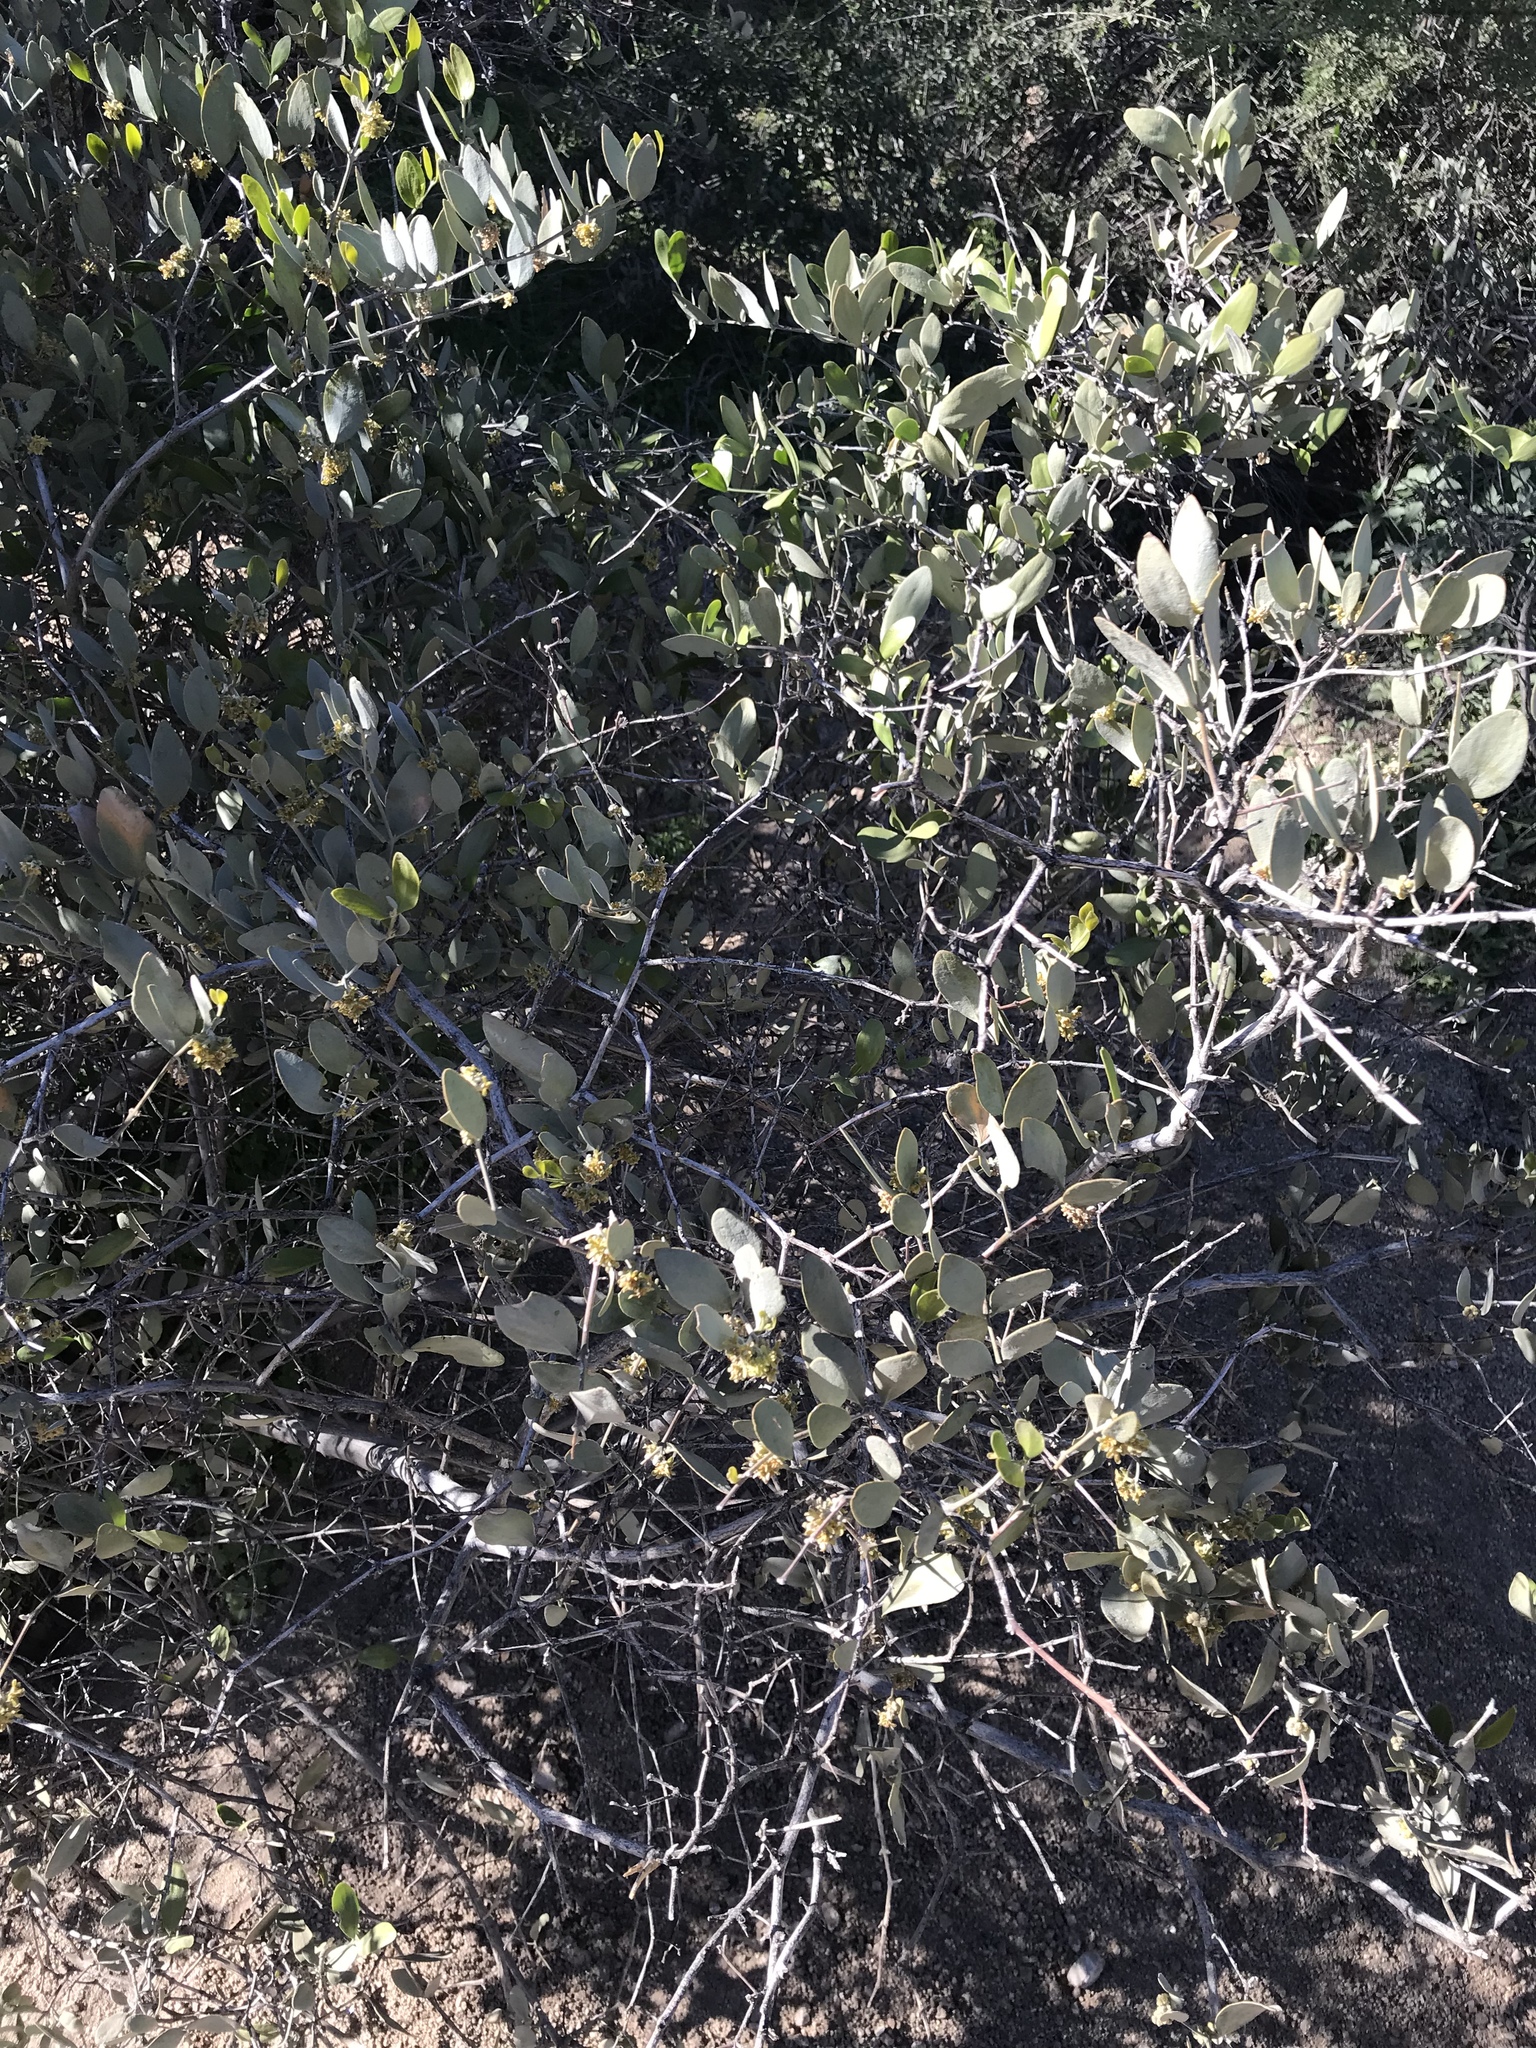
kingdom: Plantae
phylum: Tracheophyta
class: Magnoliopsida
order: Caryophyllales
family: Simmondsiaceae
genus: Simmondsia
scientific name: Simmondsia chinensis
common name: Jojoba
